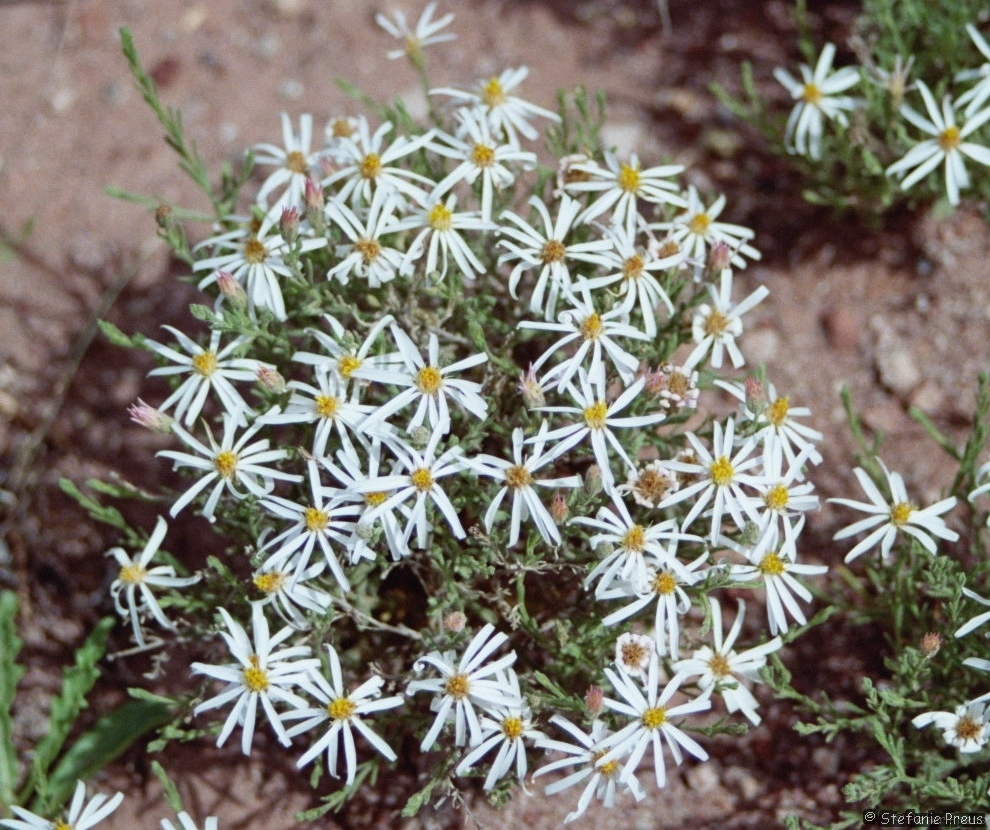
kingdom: Plantae
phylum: Tracheophyta
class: Magnoliopsida
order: Asterales
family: Asteraceae
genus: Chaetopappa
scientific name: Chaetopappa ericoides
